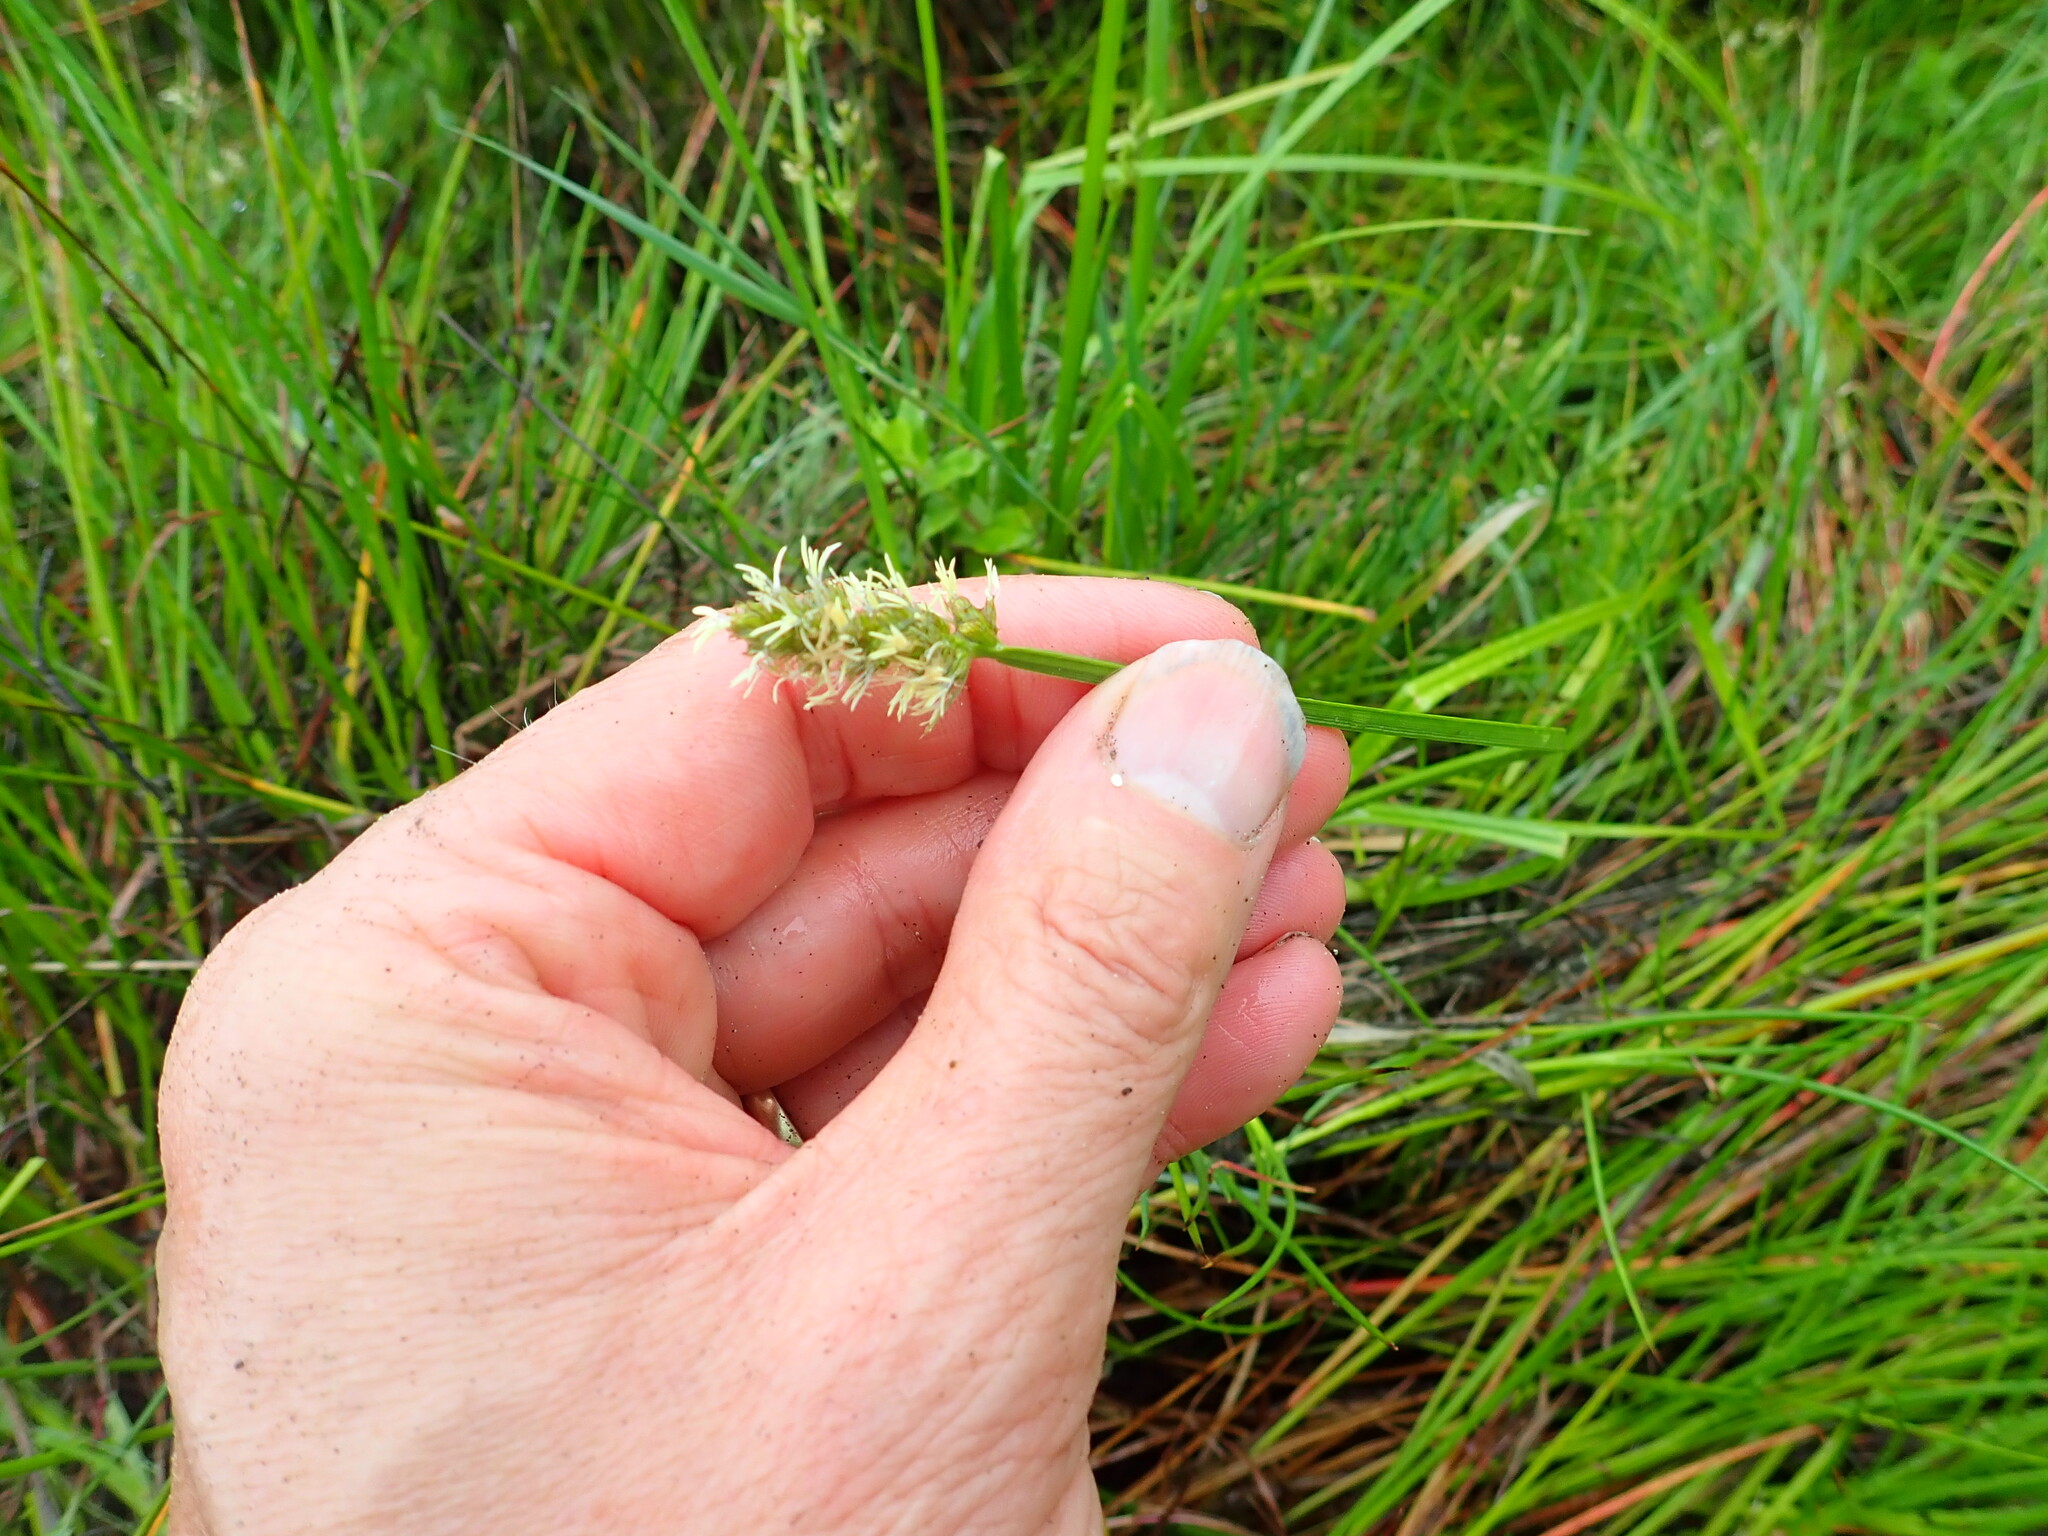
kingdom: Plantae
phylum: Tracheophyta
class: Liliopsida
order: Poales
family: Cyperaceae
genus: Carex
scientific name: Carex otrubae
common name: False fox-sedge
